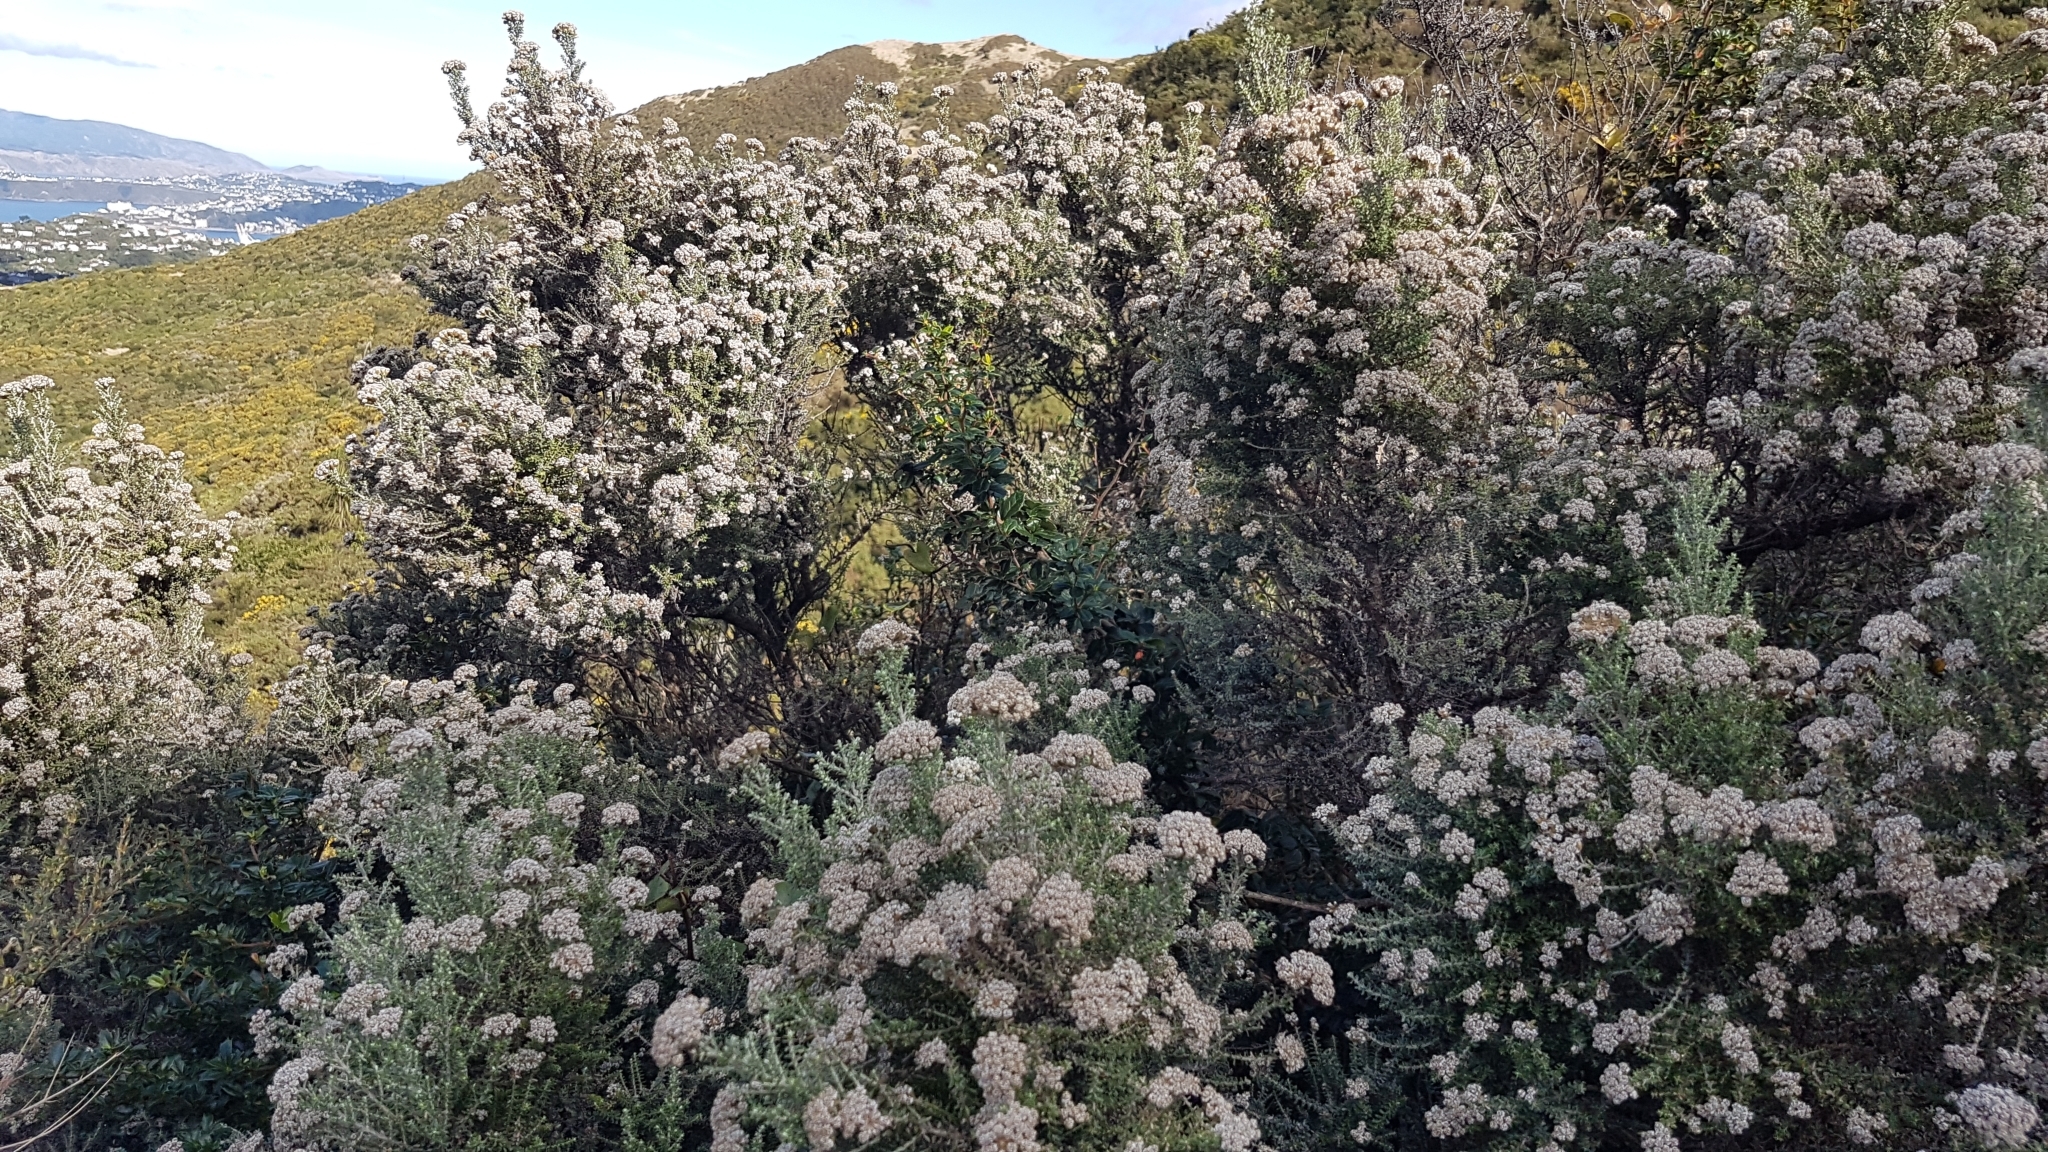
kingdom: Plantae
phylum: Tracheophyta
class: Magnoliopsida
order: Asterales
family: Asteraceae
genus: Ozothamnus
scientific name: Ozothamnus leptophyllus
